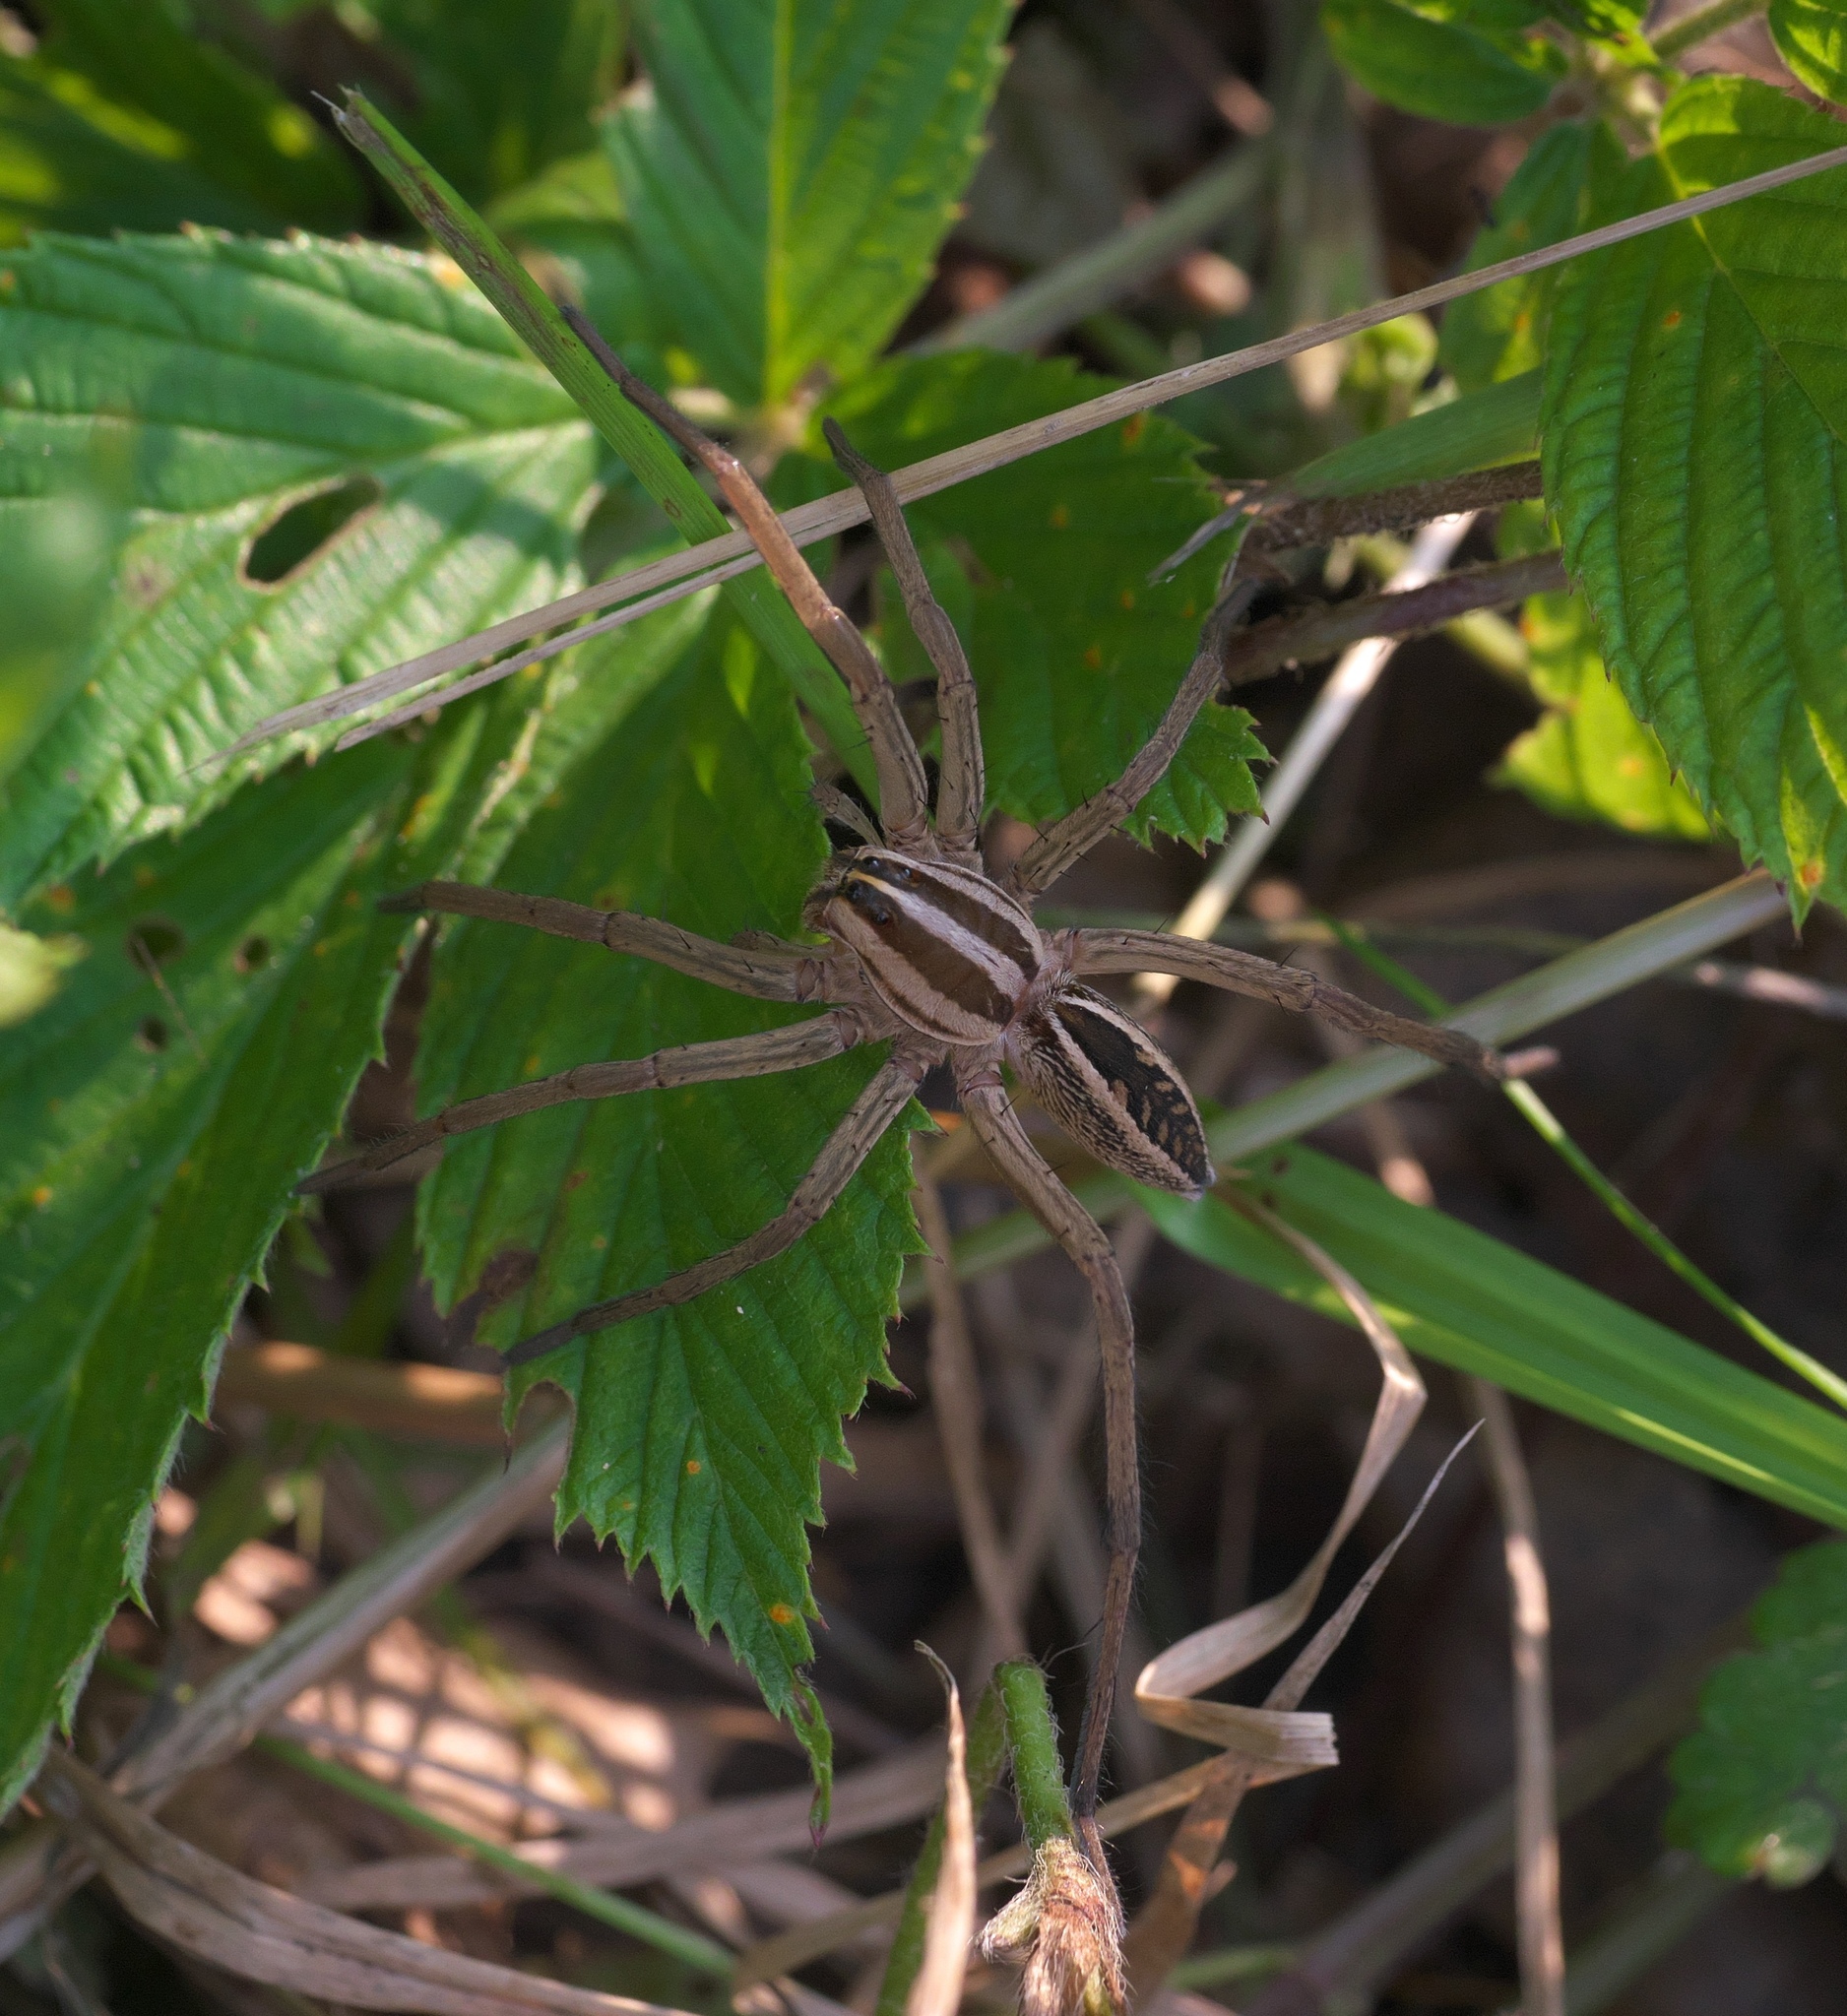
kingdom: Animalia
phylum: Arthropoda
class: Arachnida
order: Araneae
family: Lycosidae
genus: Rabidosa
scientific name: Rabidosa rabida
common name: Rabid wolf spider
